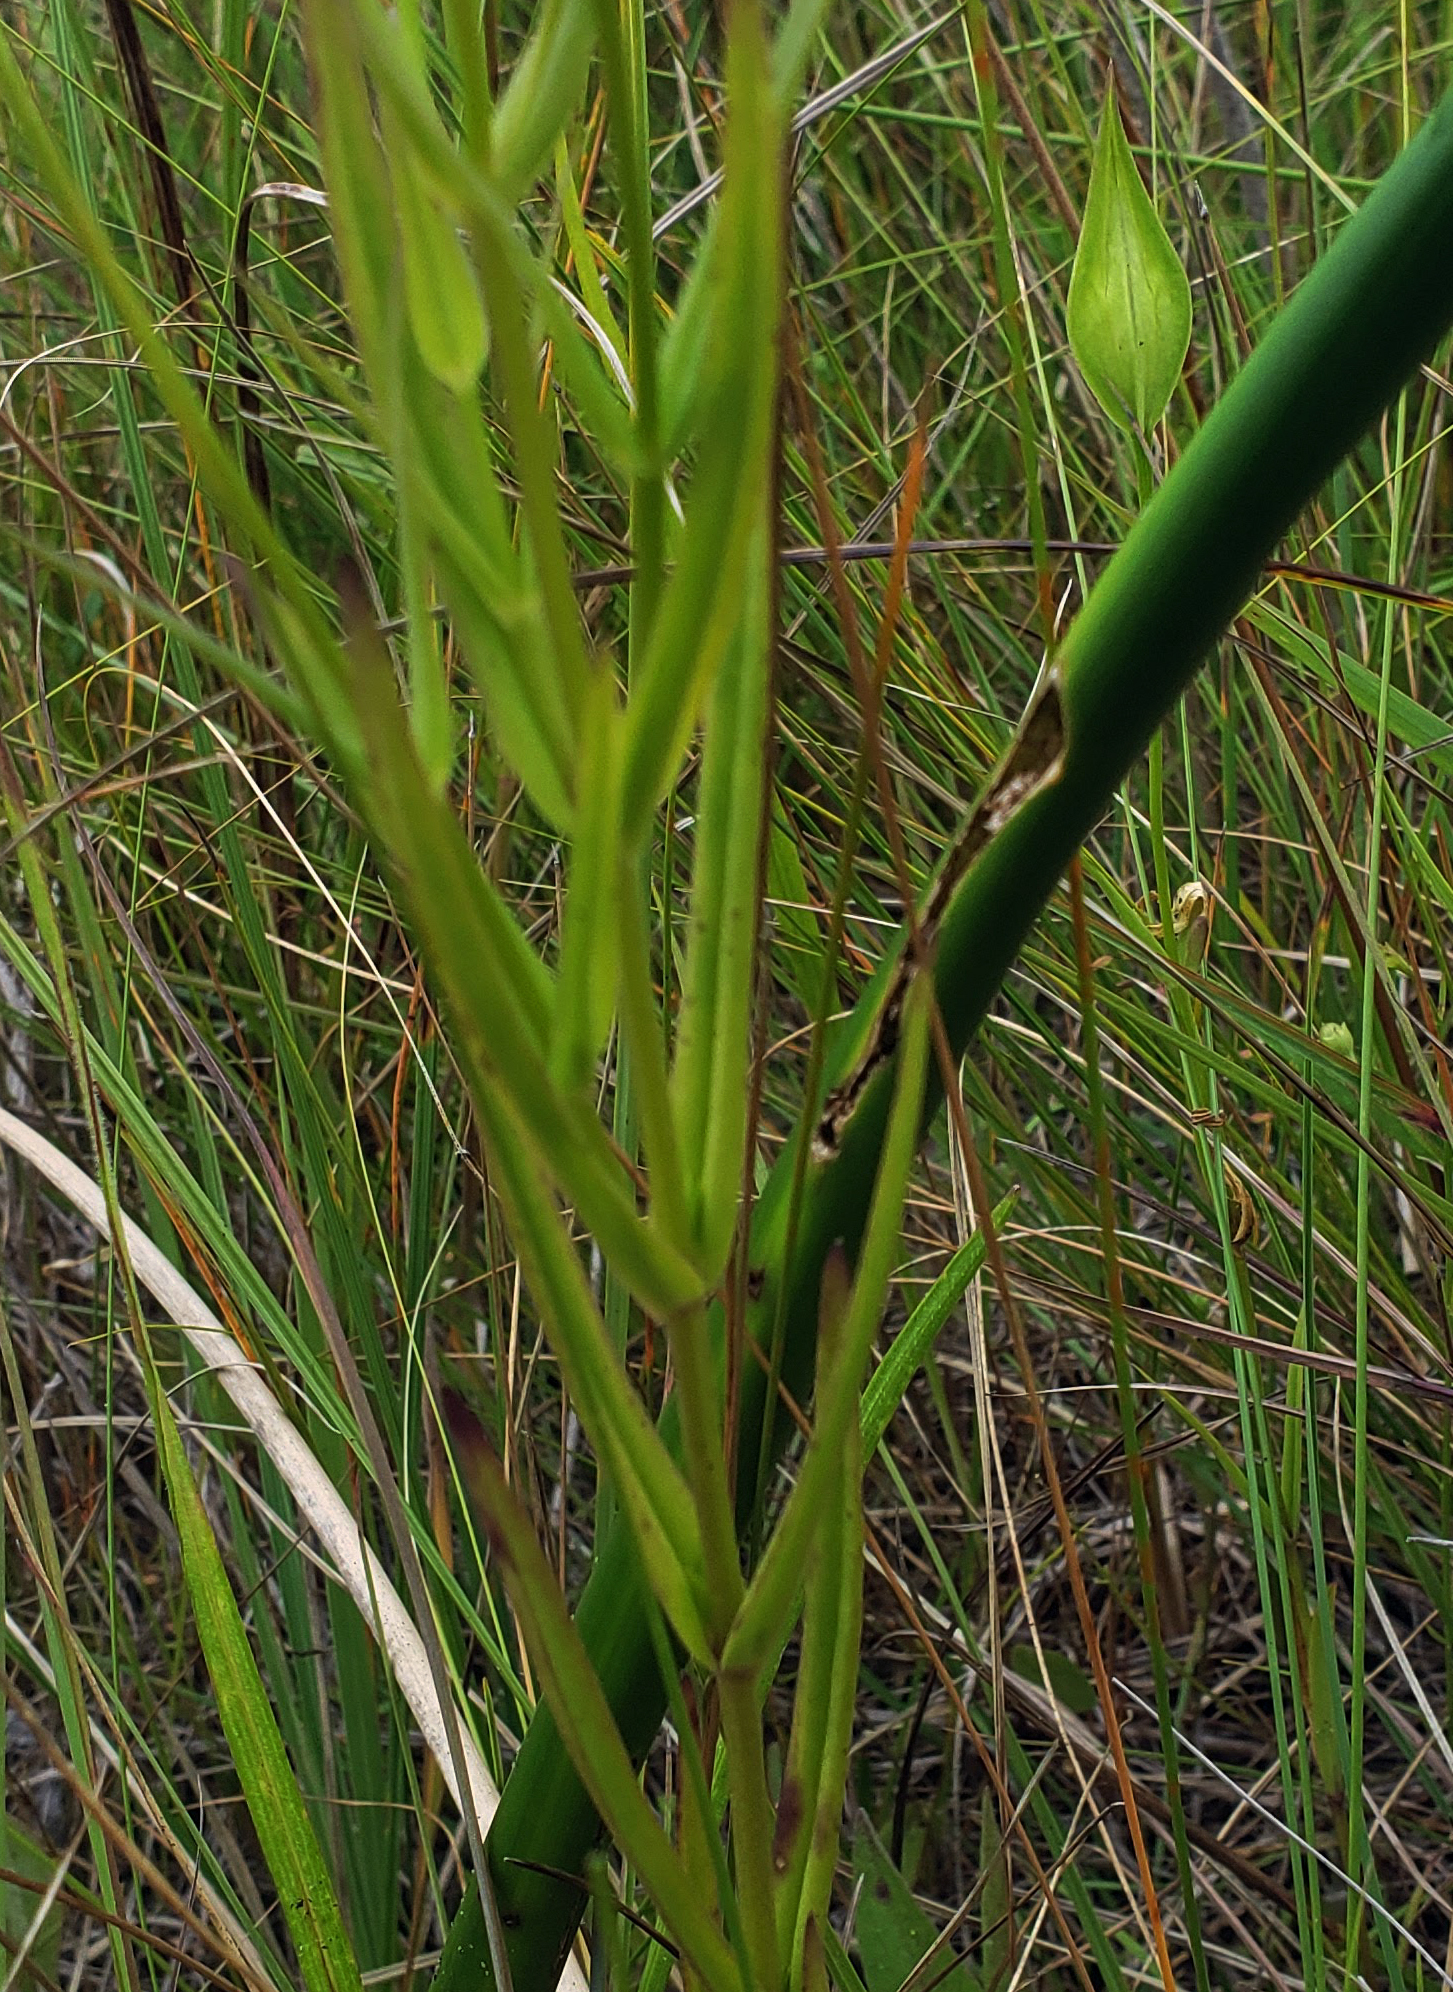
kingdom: Plantae
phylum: Tracheophyta
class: Magnoliopsida
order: Gentianales
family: Gentianaceae
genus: Gentianopsis
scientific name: Gentianopsis virgata
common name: Lesser fringed-gentian
